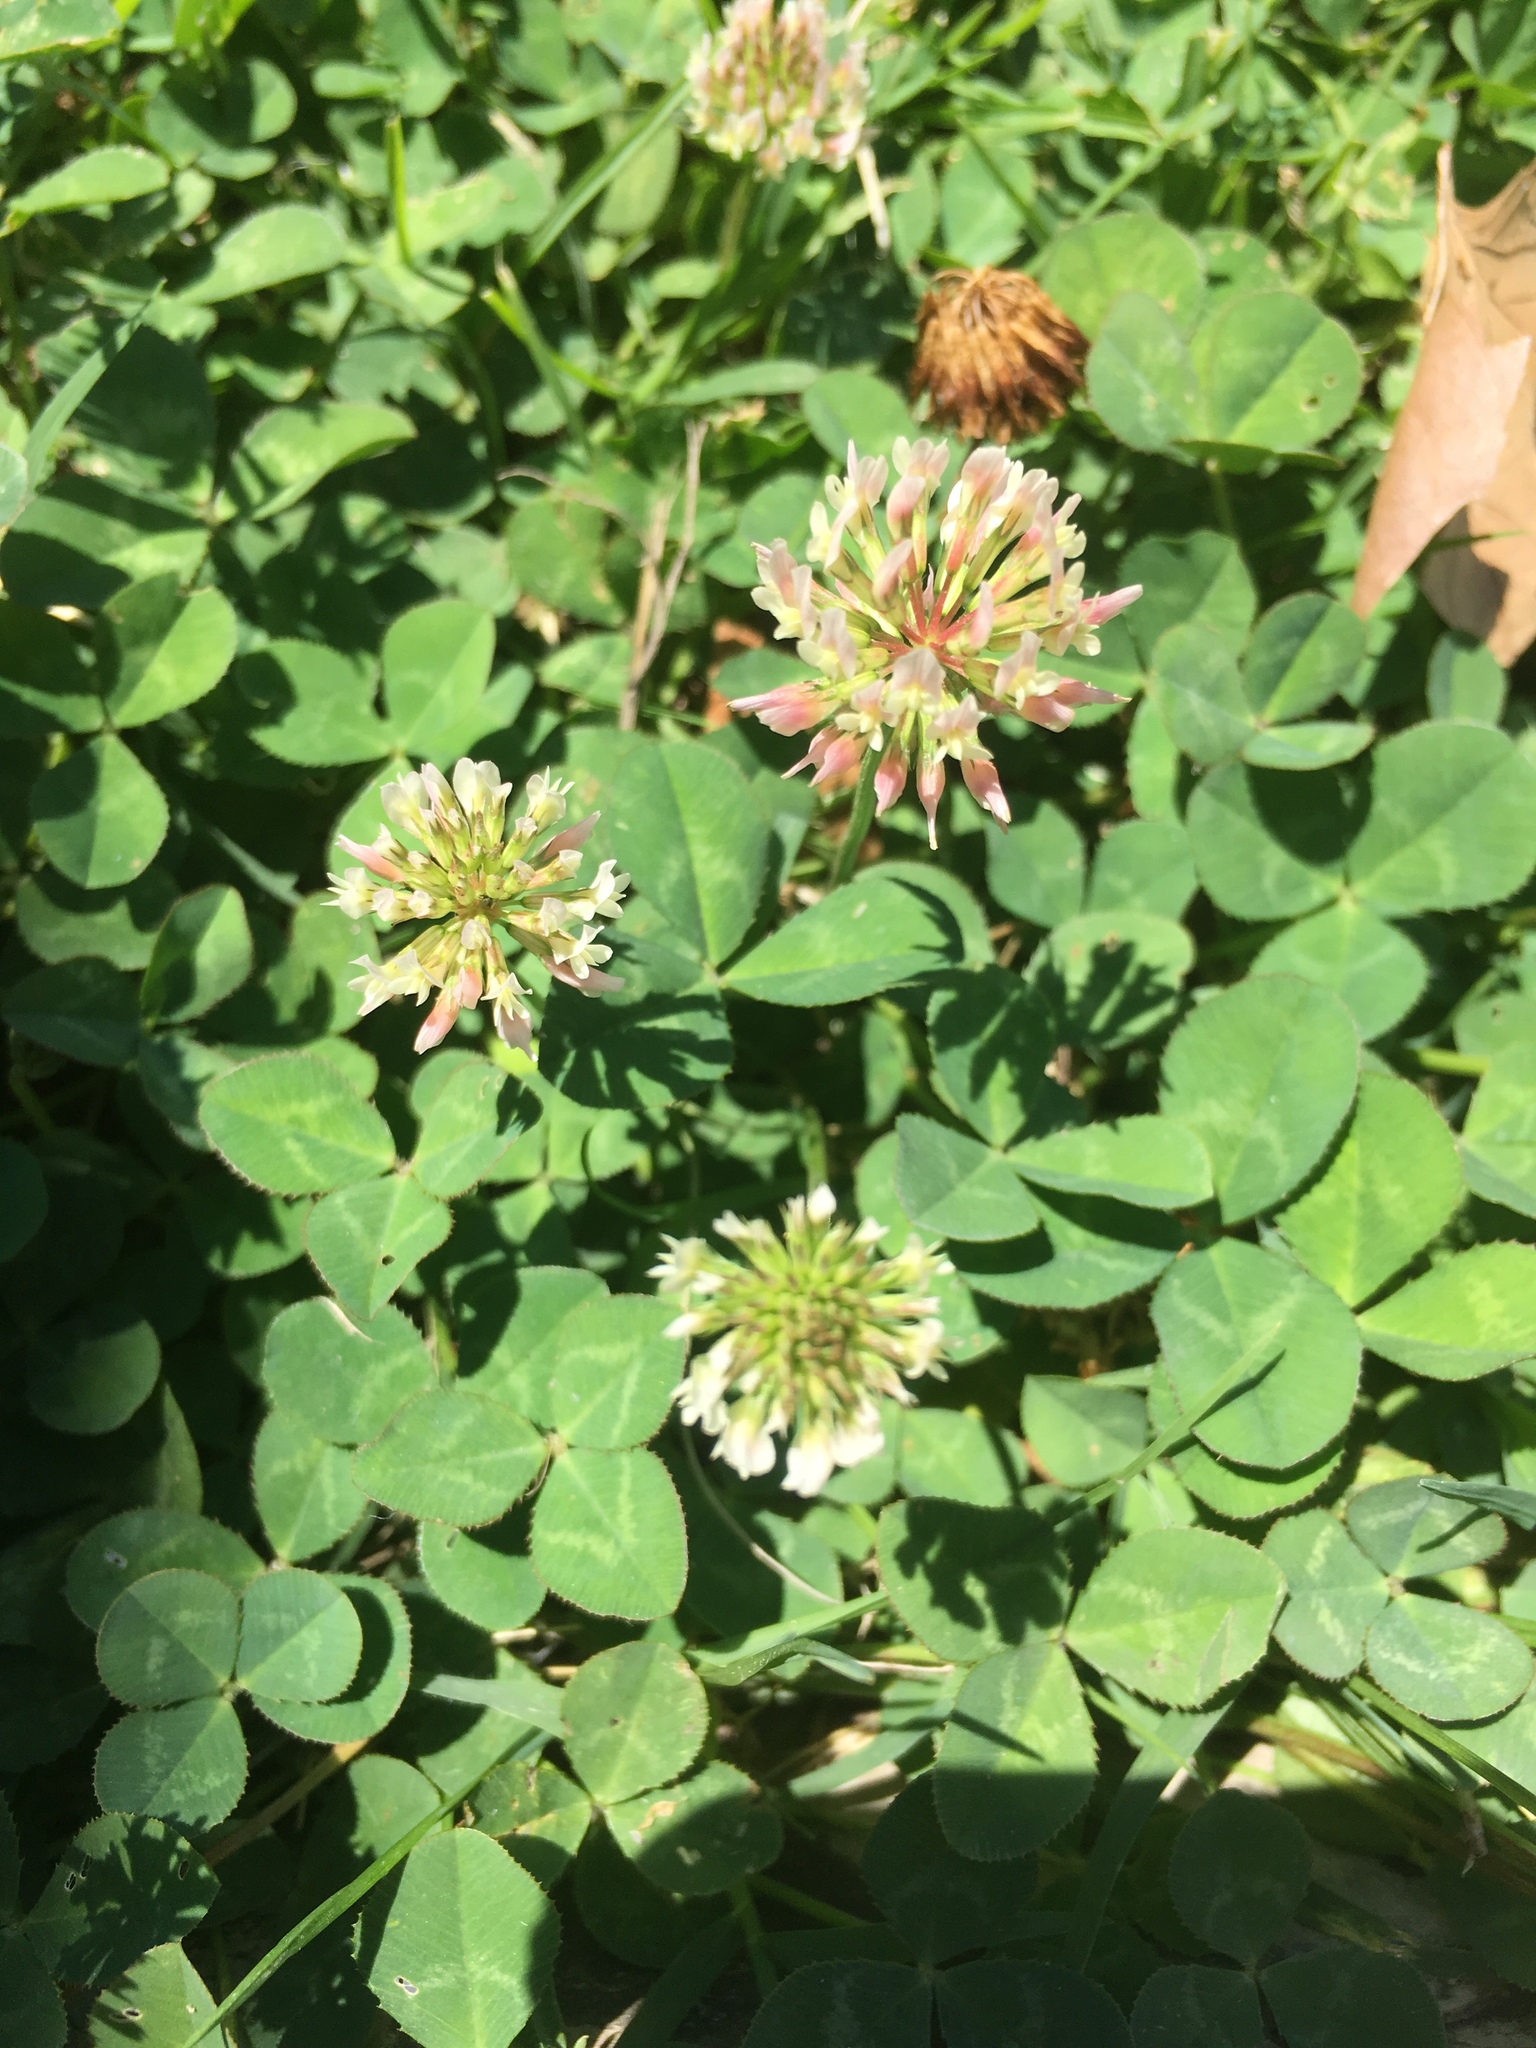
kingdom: Plantae
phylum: Tracheophyta
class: Magnoliopsida
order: Fabales
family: Fabaceae
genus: Trifolium
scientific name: Trifolium repens
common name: White clover
